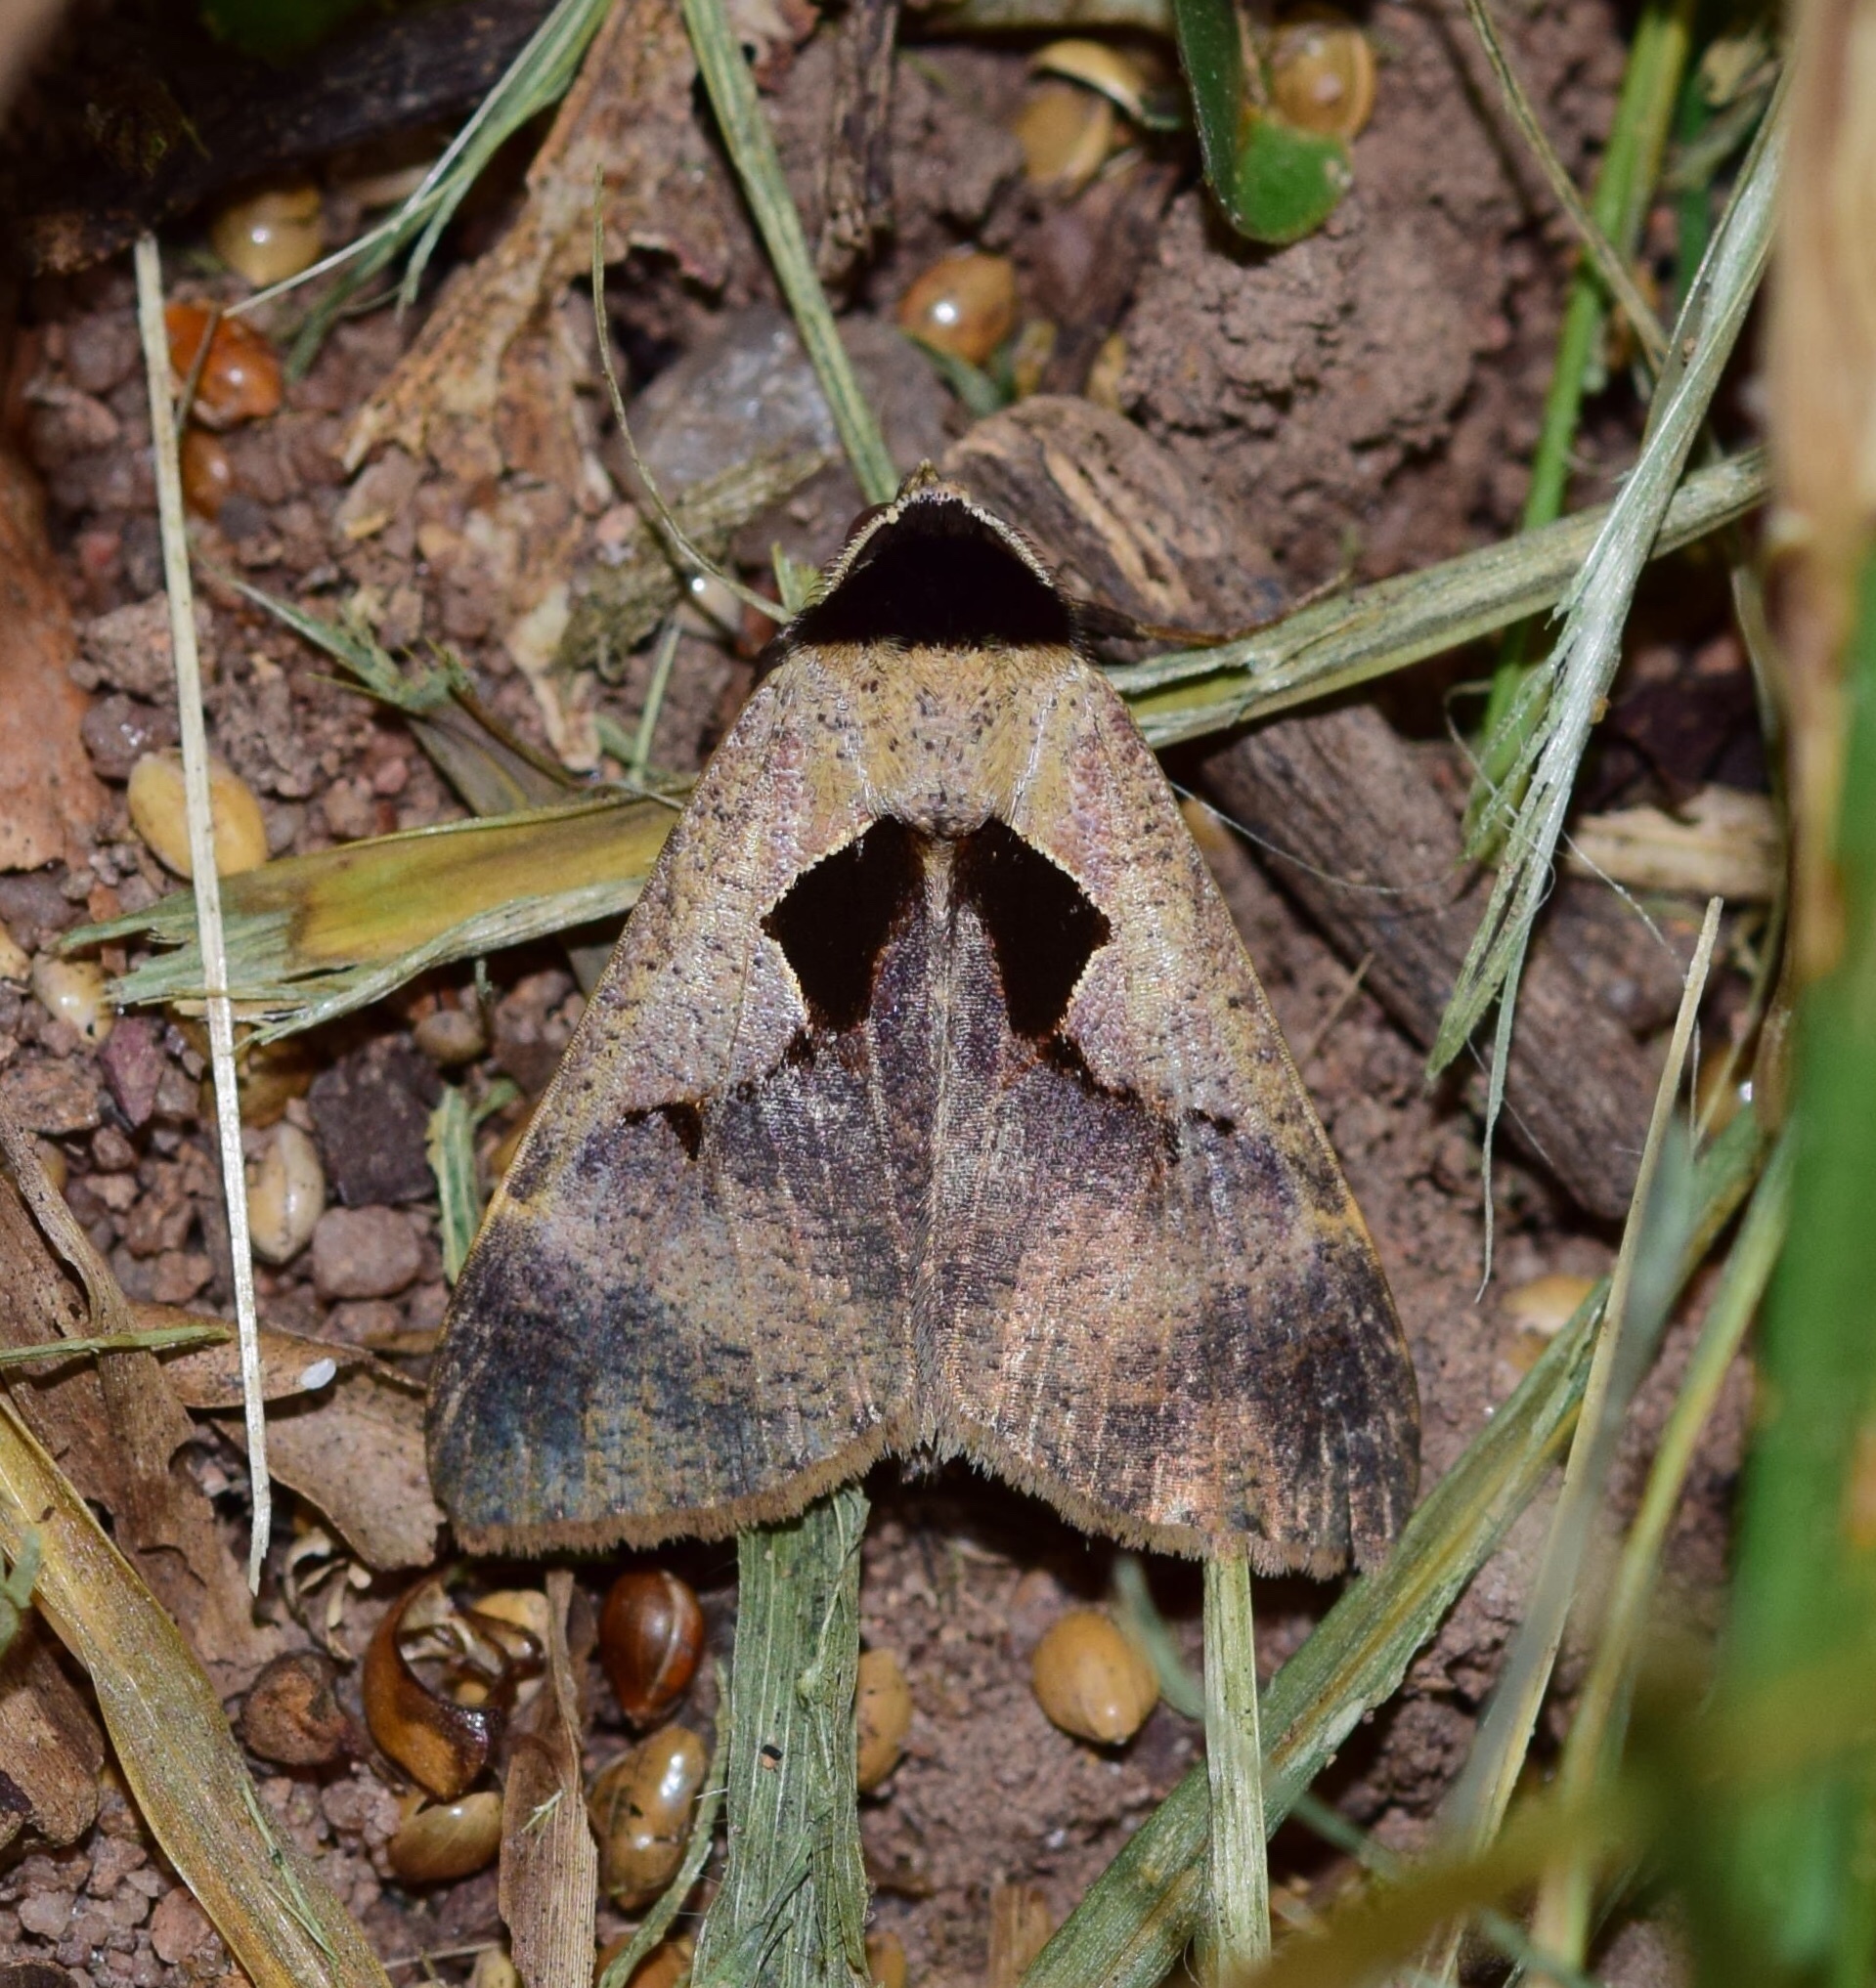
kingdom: Animalia
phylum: Arthropoda
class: Insecta
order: Lepidoptera
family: Erebidae
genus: Anoba
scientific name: Anoba atriplaga
